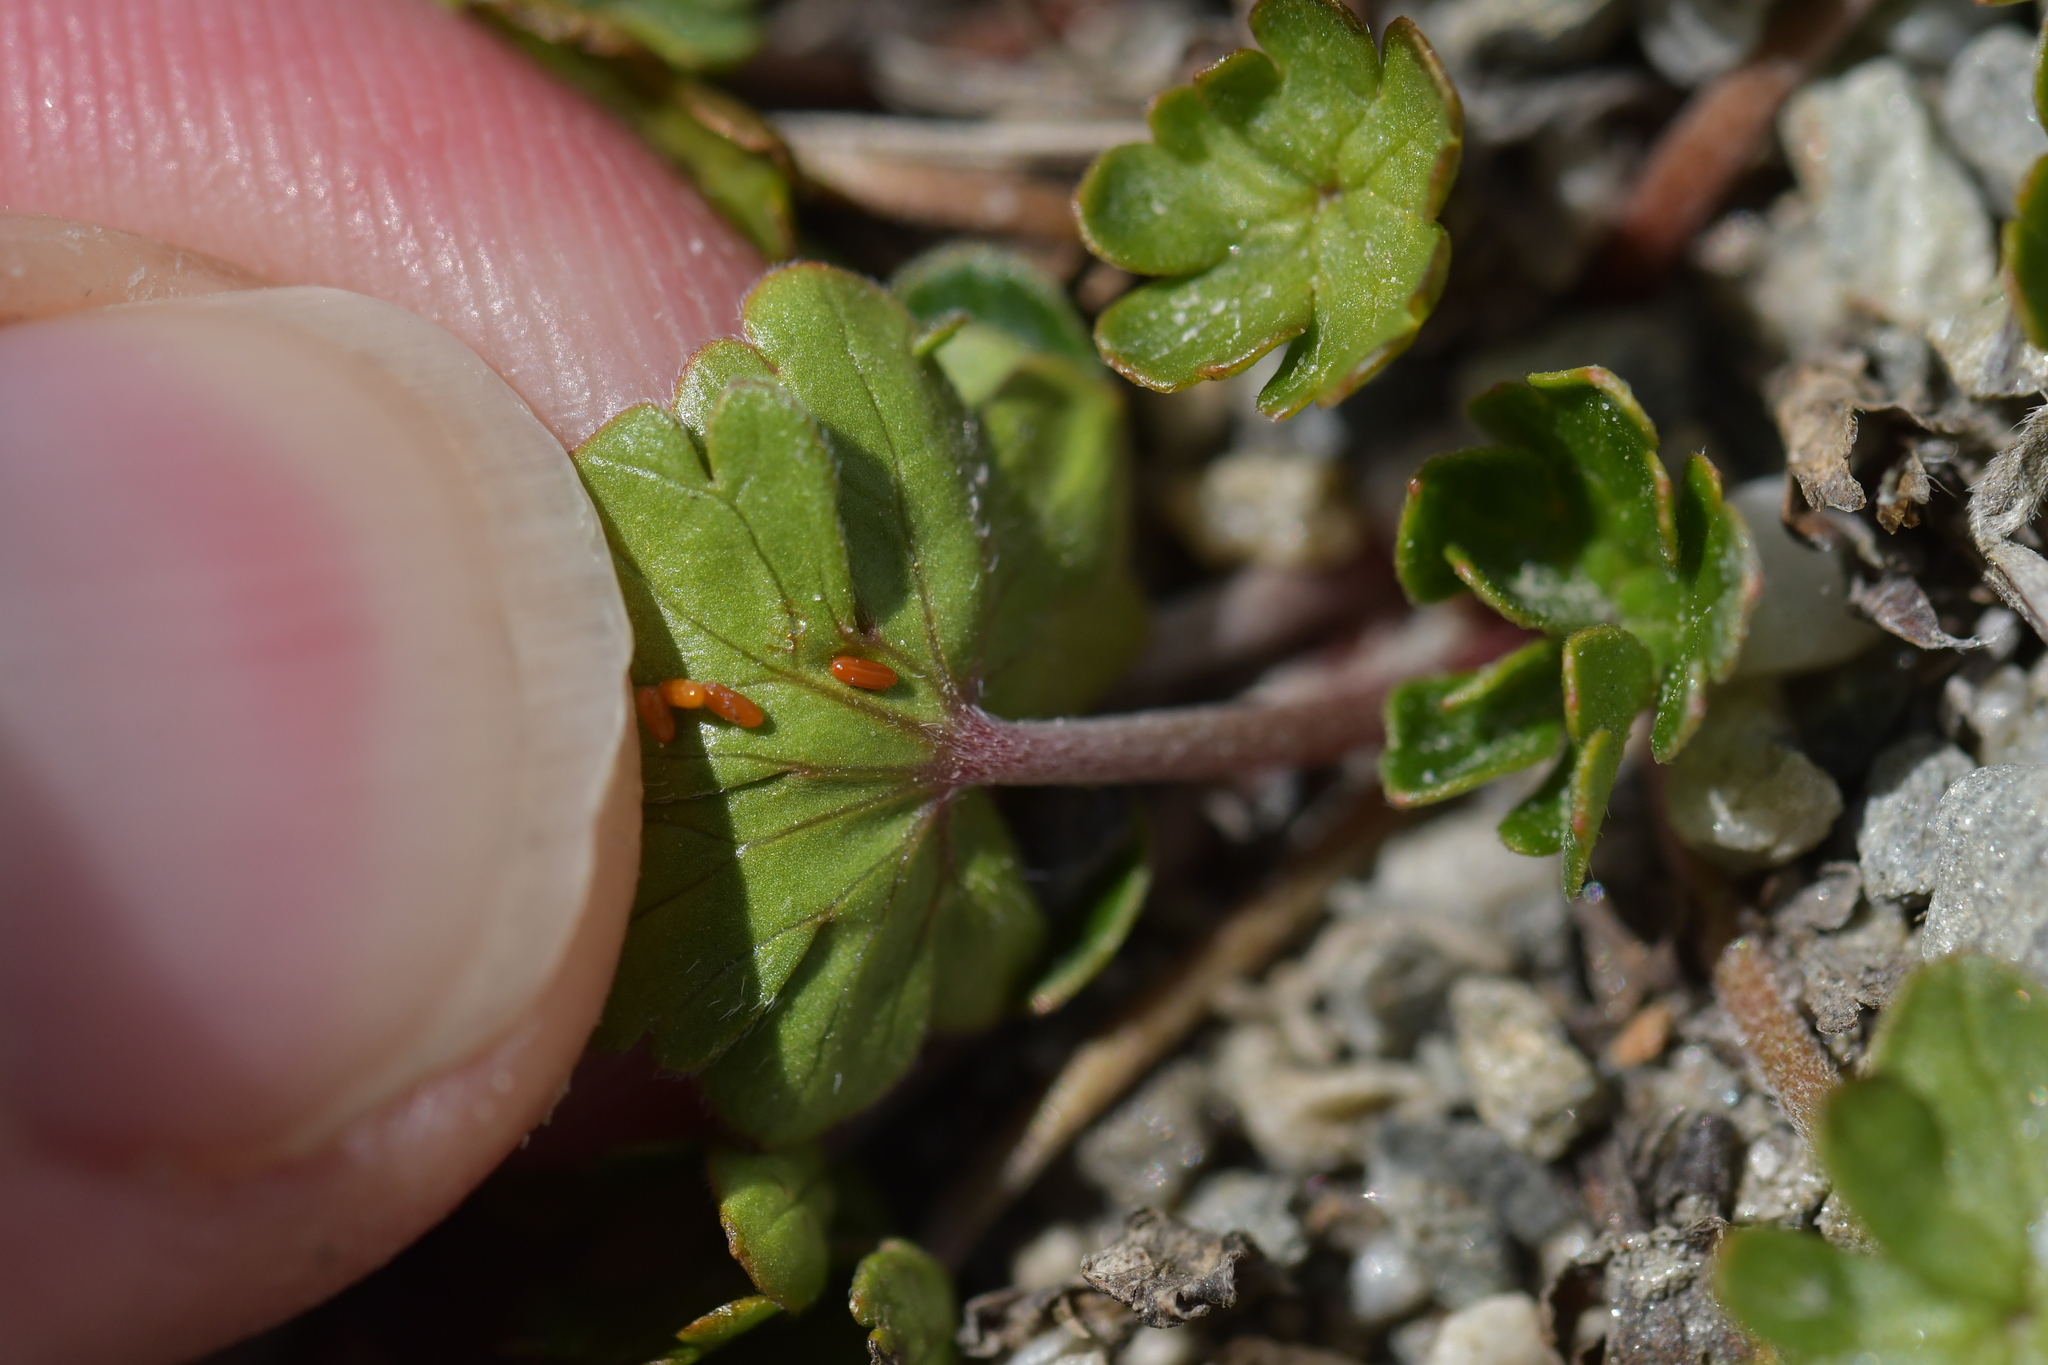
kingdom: Plantae
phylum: Tracheophyta
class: Magnoliopsida
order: Geraniales
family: Geraniaceae
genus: Geranium
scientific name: Geranium brevicaule
